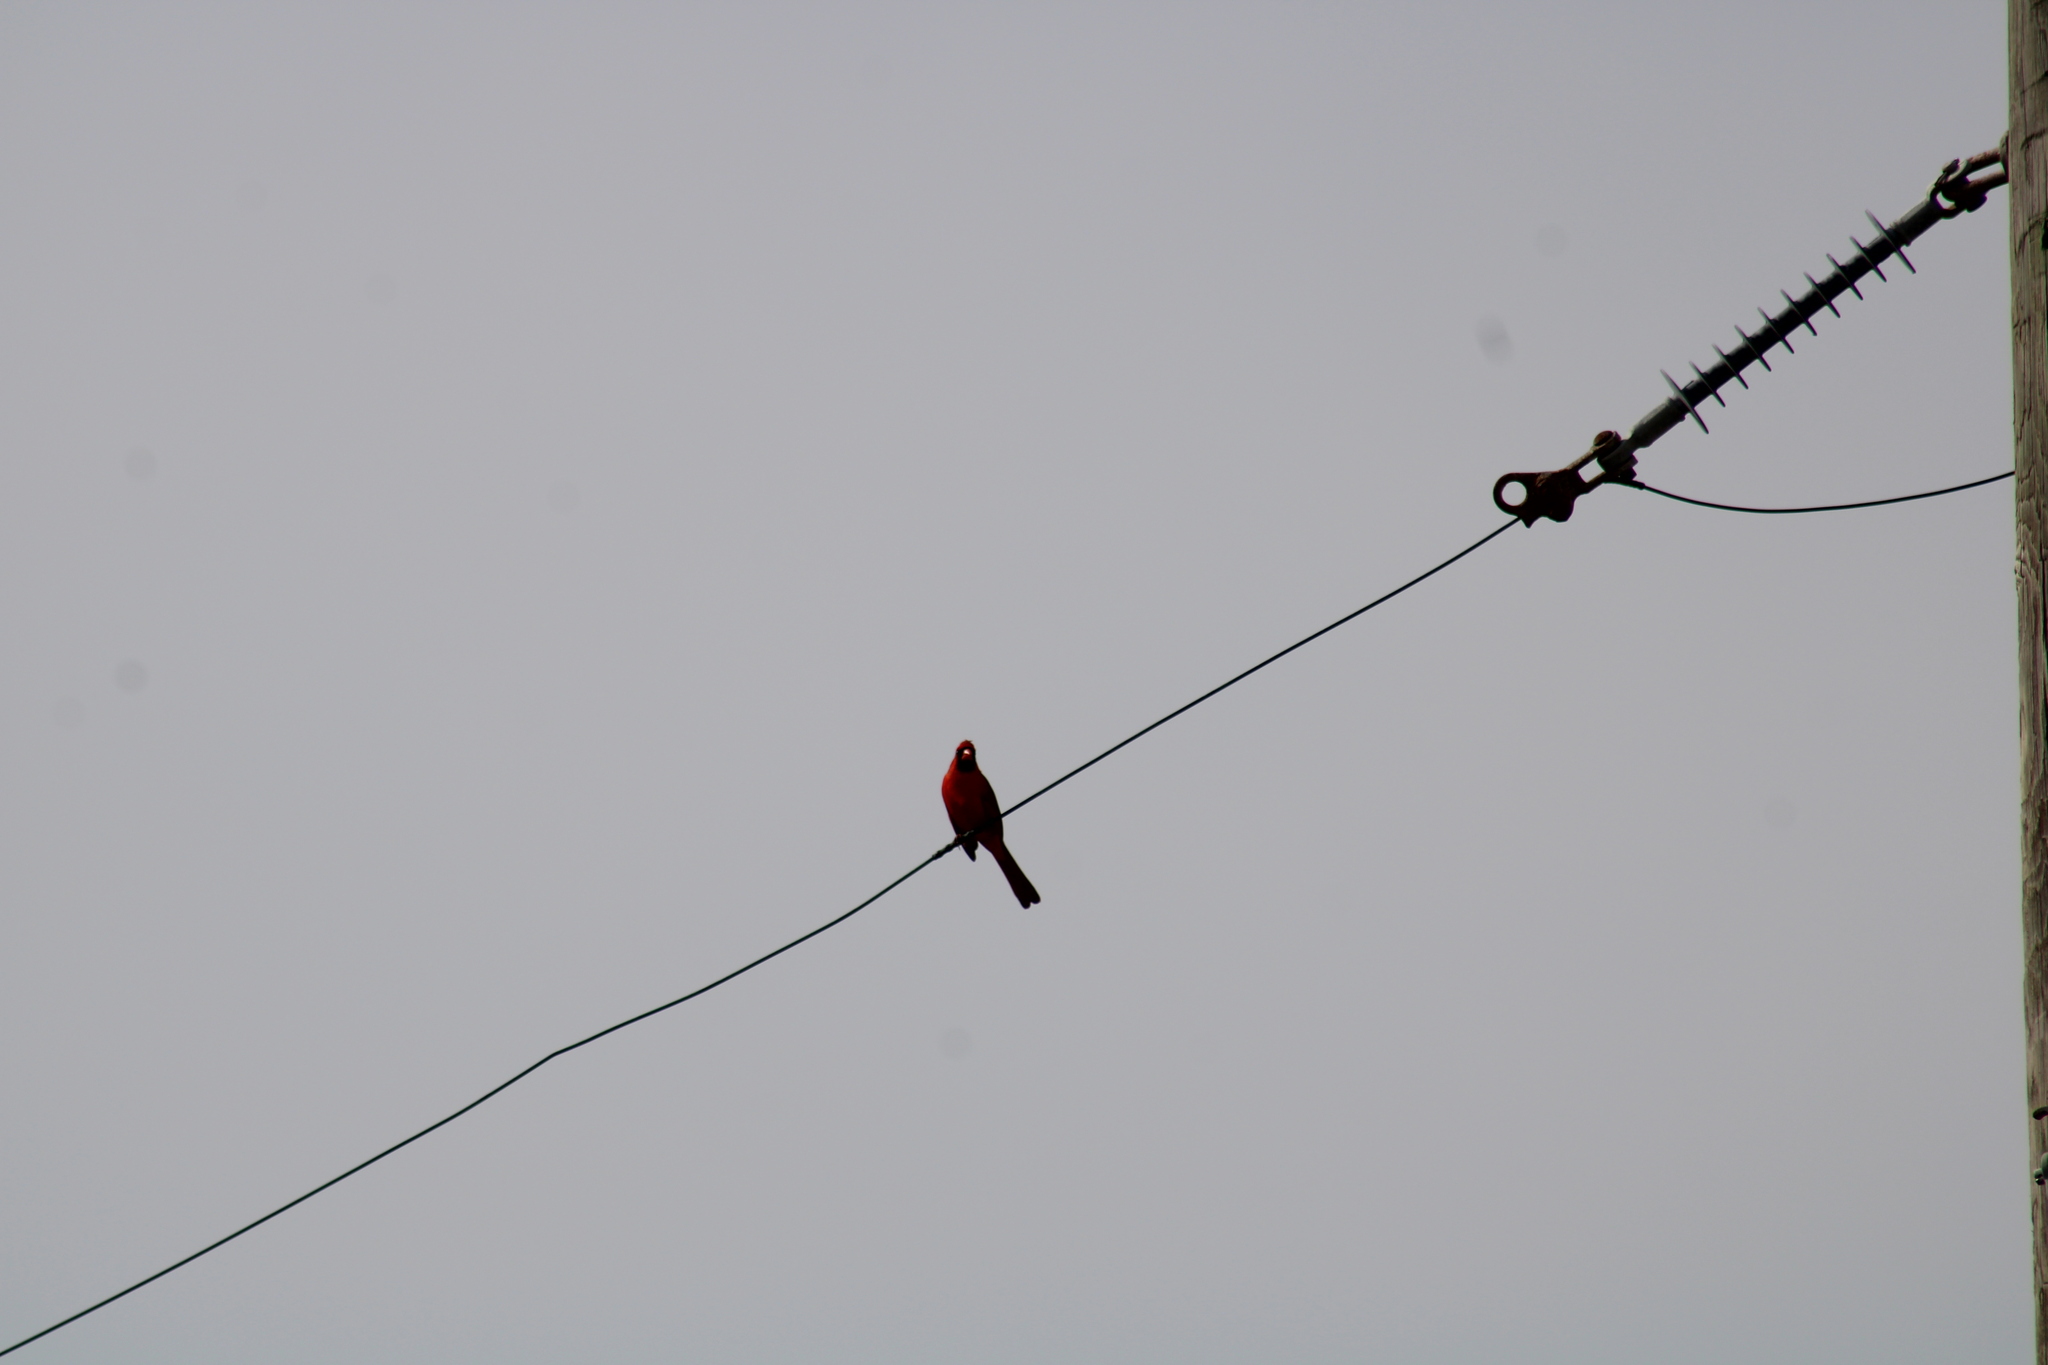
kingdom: Animalia
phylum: Chordata
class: Aves
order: Passeriformes
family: Cardinalidae
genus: Cardinalis
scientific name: Cardinalis cardinalis
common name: Northern cardinal
